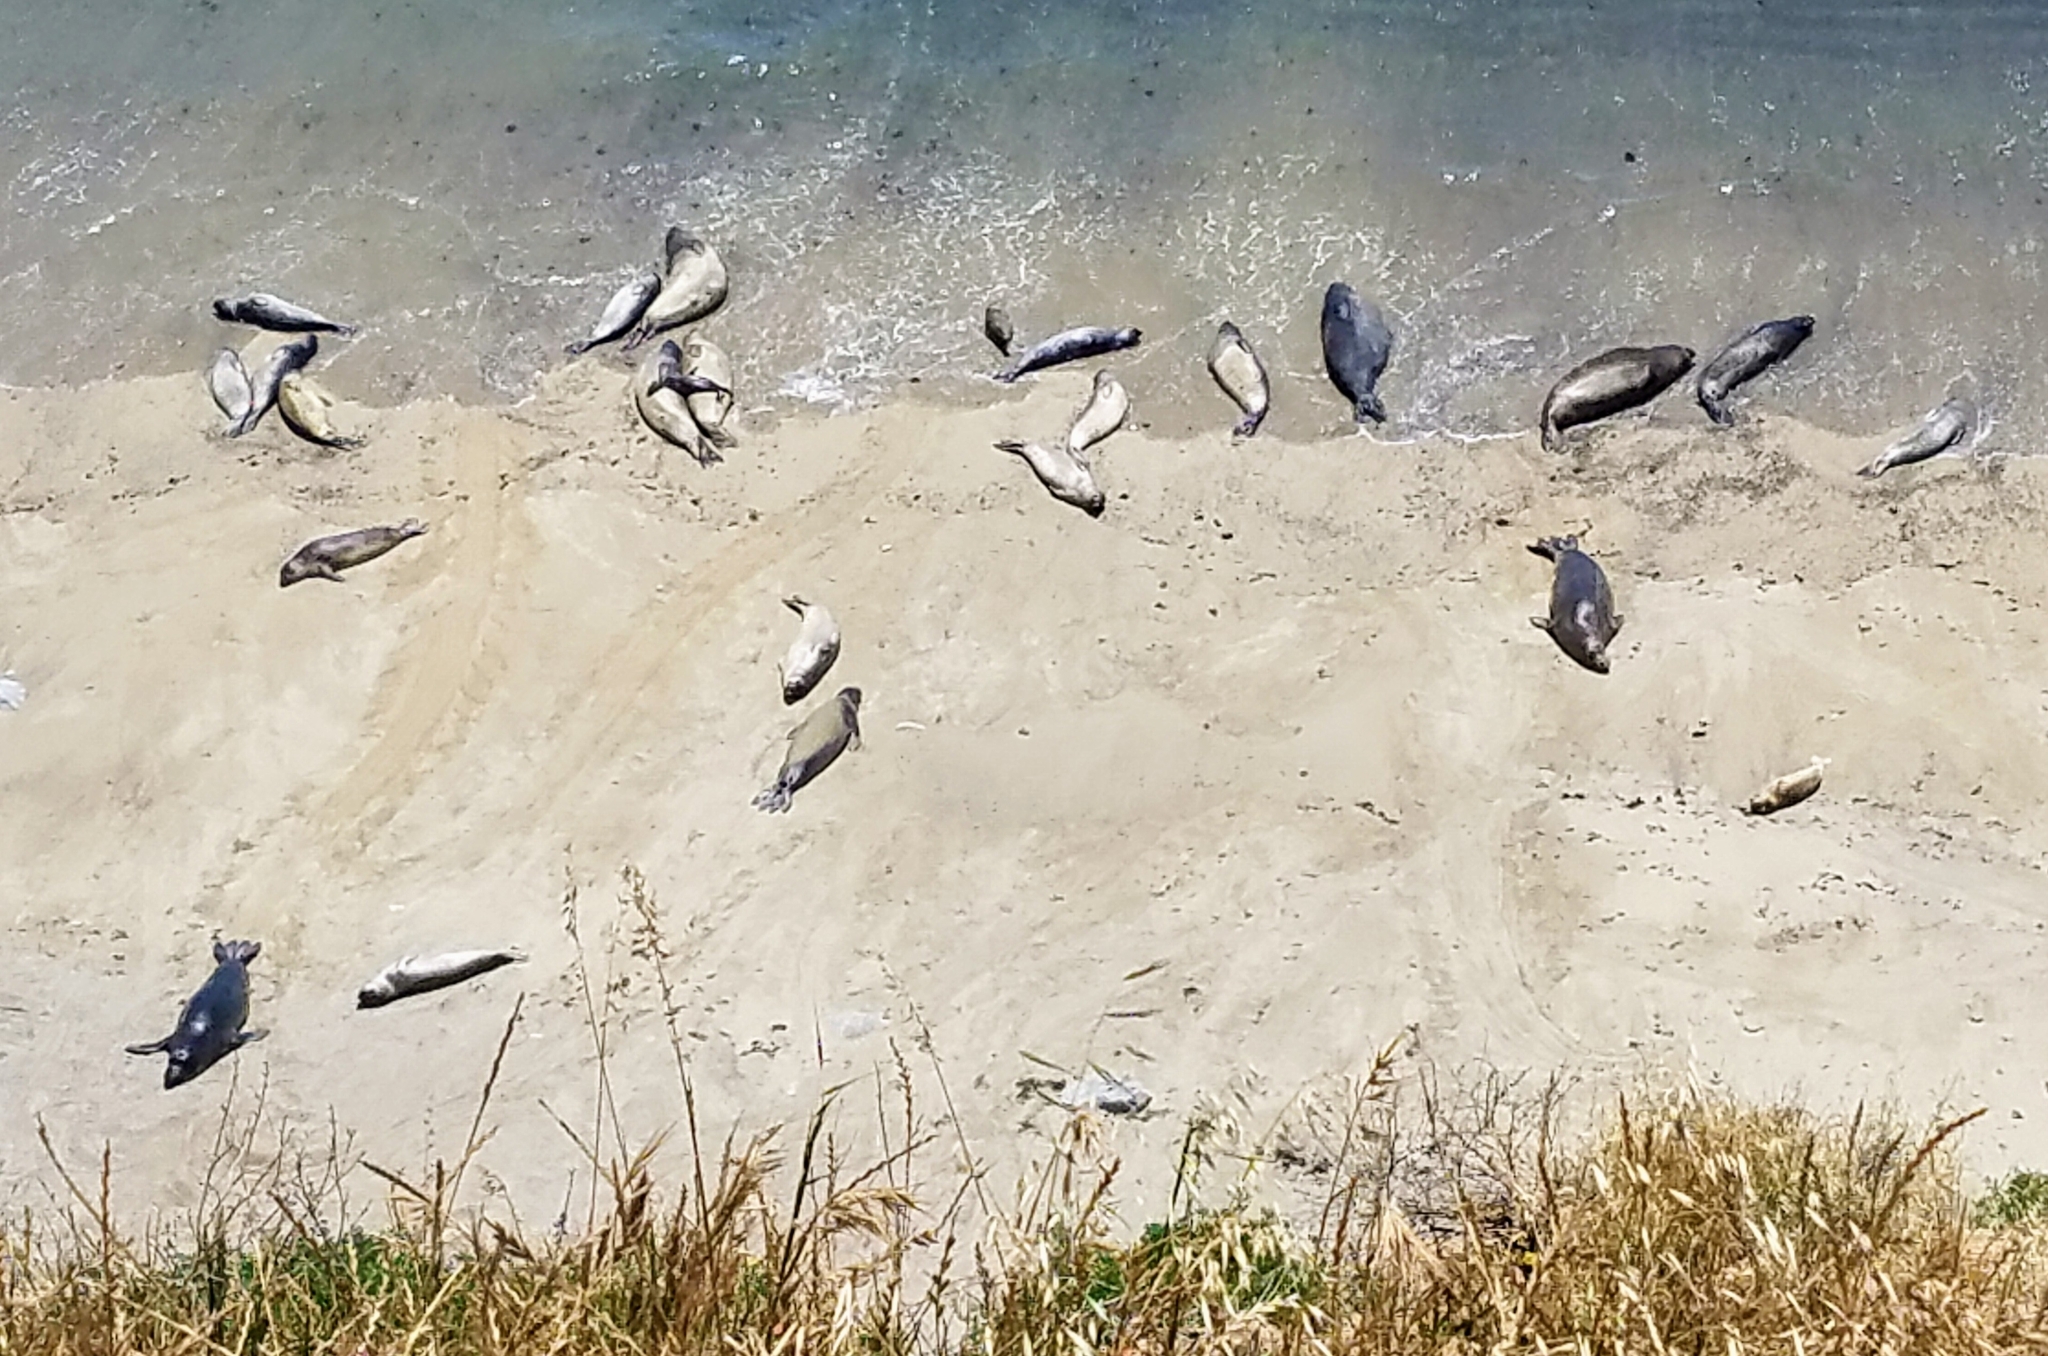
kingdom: Animalia
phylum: Chordata
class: Mammalia
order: Carnivora
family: Phocidae
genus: Mirounga
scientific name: Mirounga angustirostris
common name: Northern elephant seal
